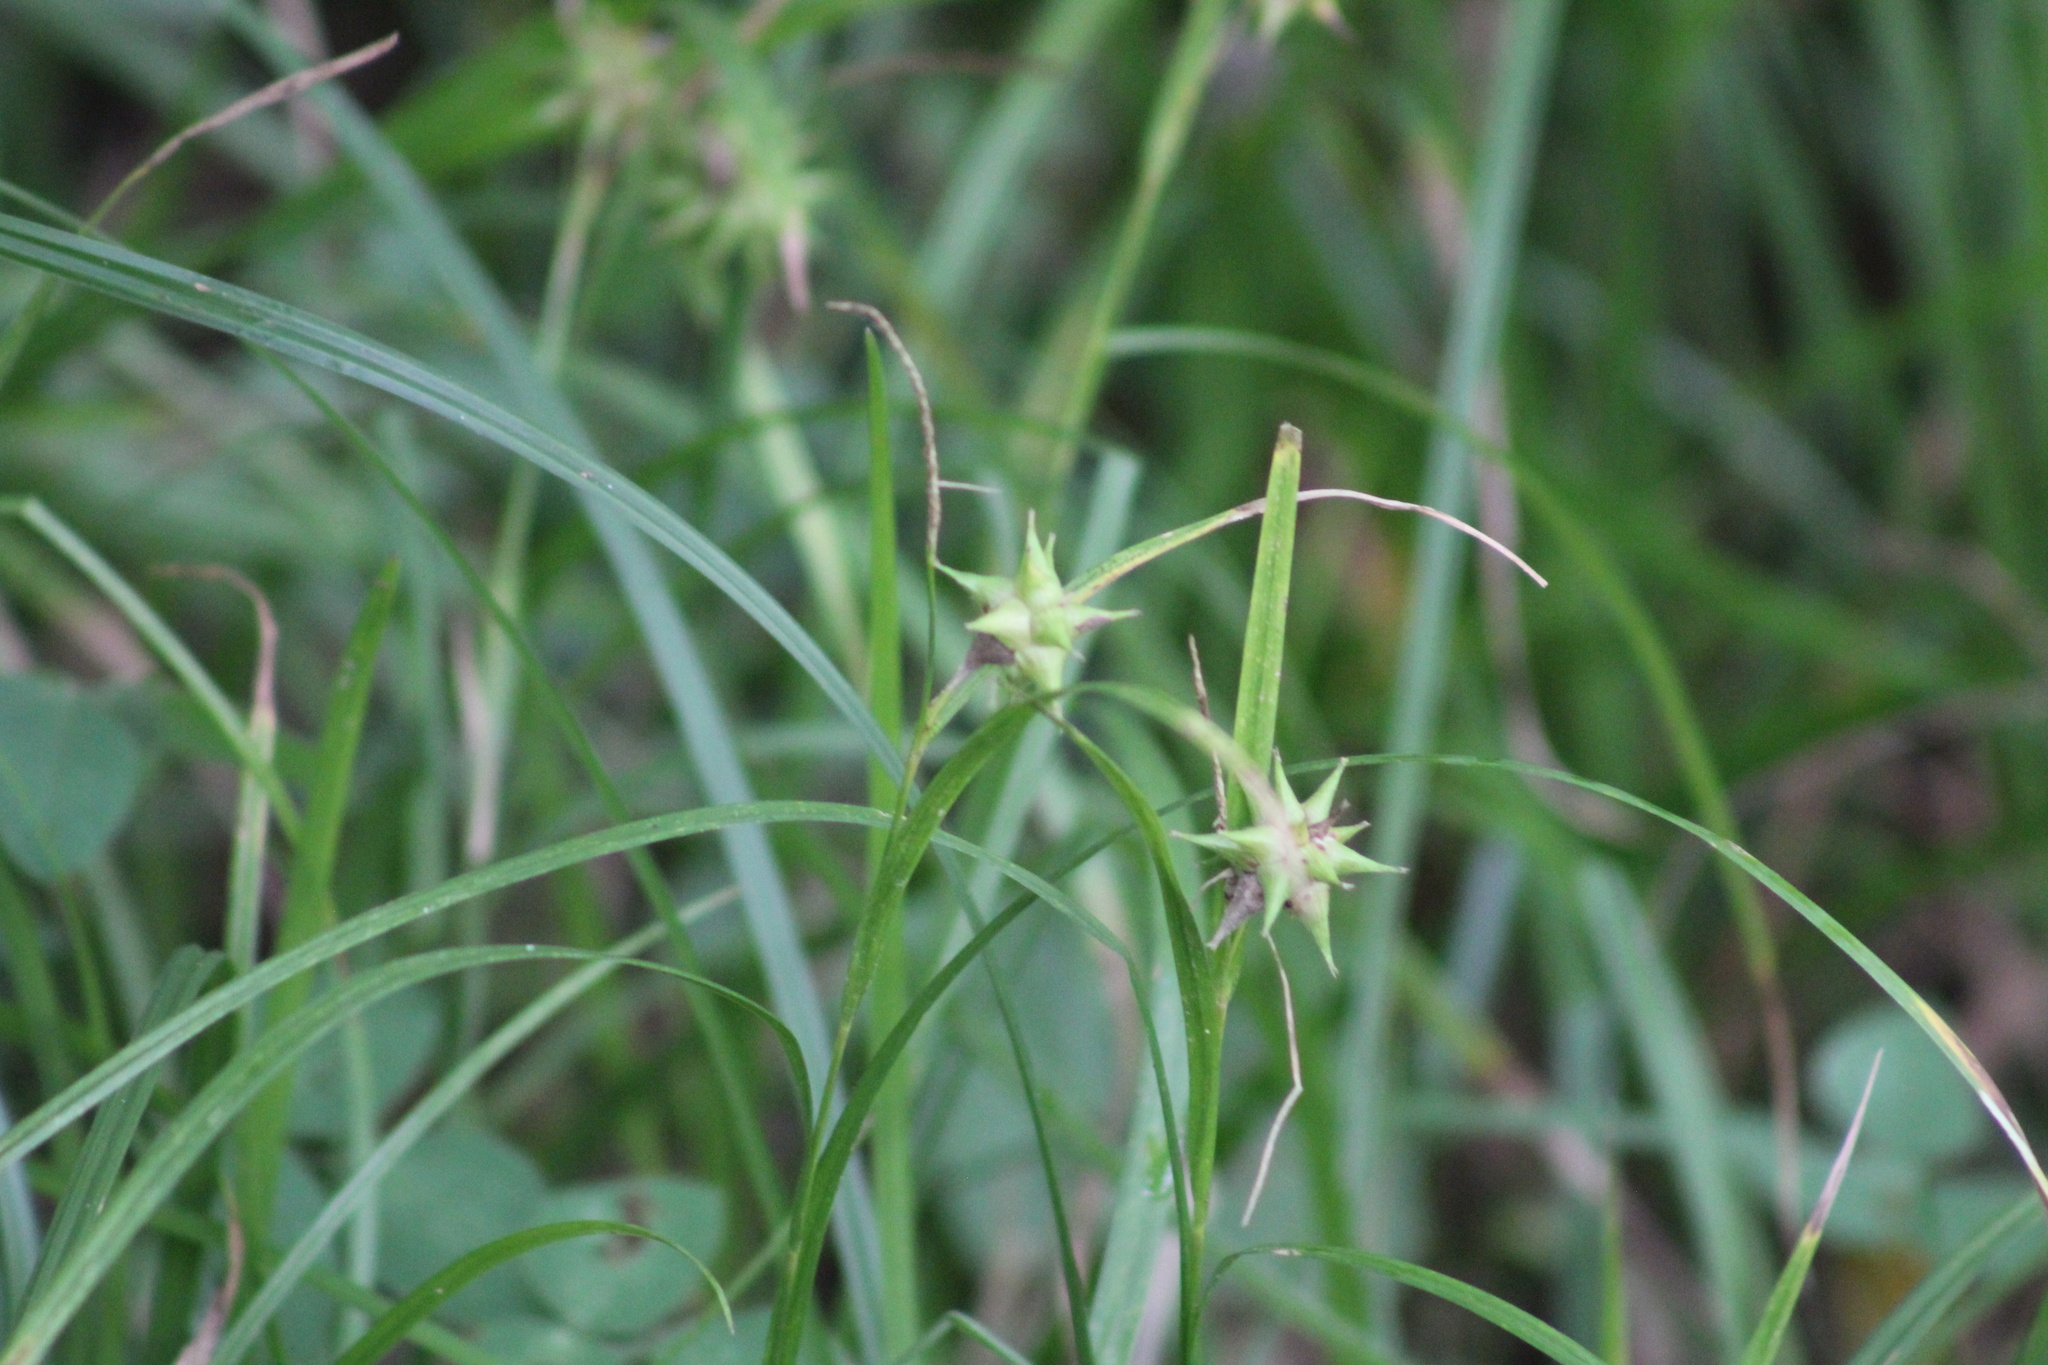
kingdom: Plantae
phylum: Tracheophyta
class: Liliopsida
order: Poales
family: Cyperaceae
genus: Carex
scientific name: Carex grayi
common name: Asa gray's sedge
